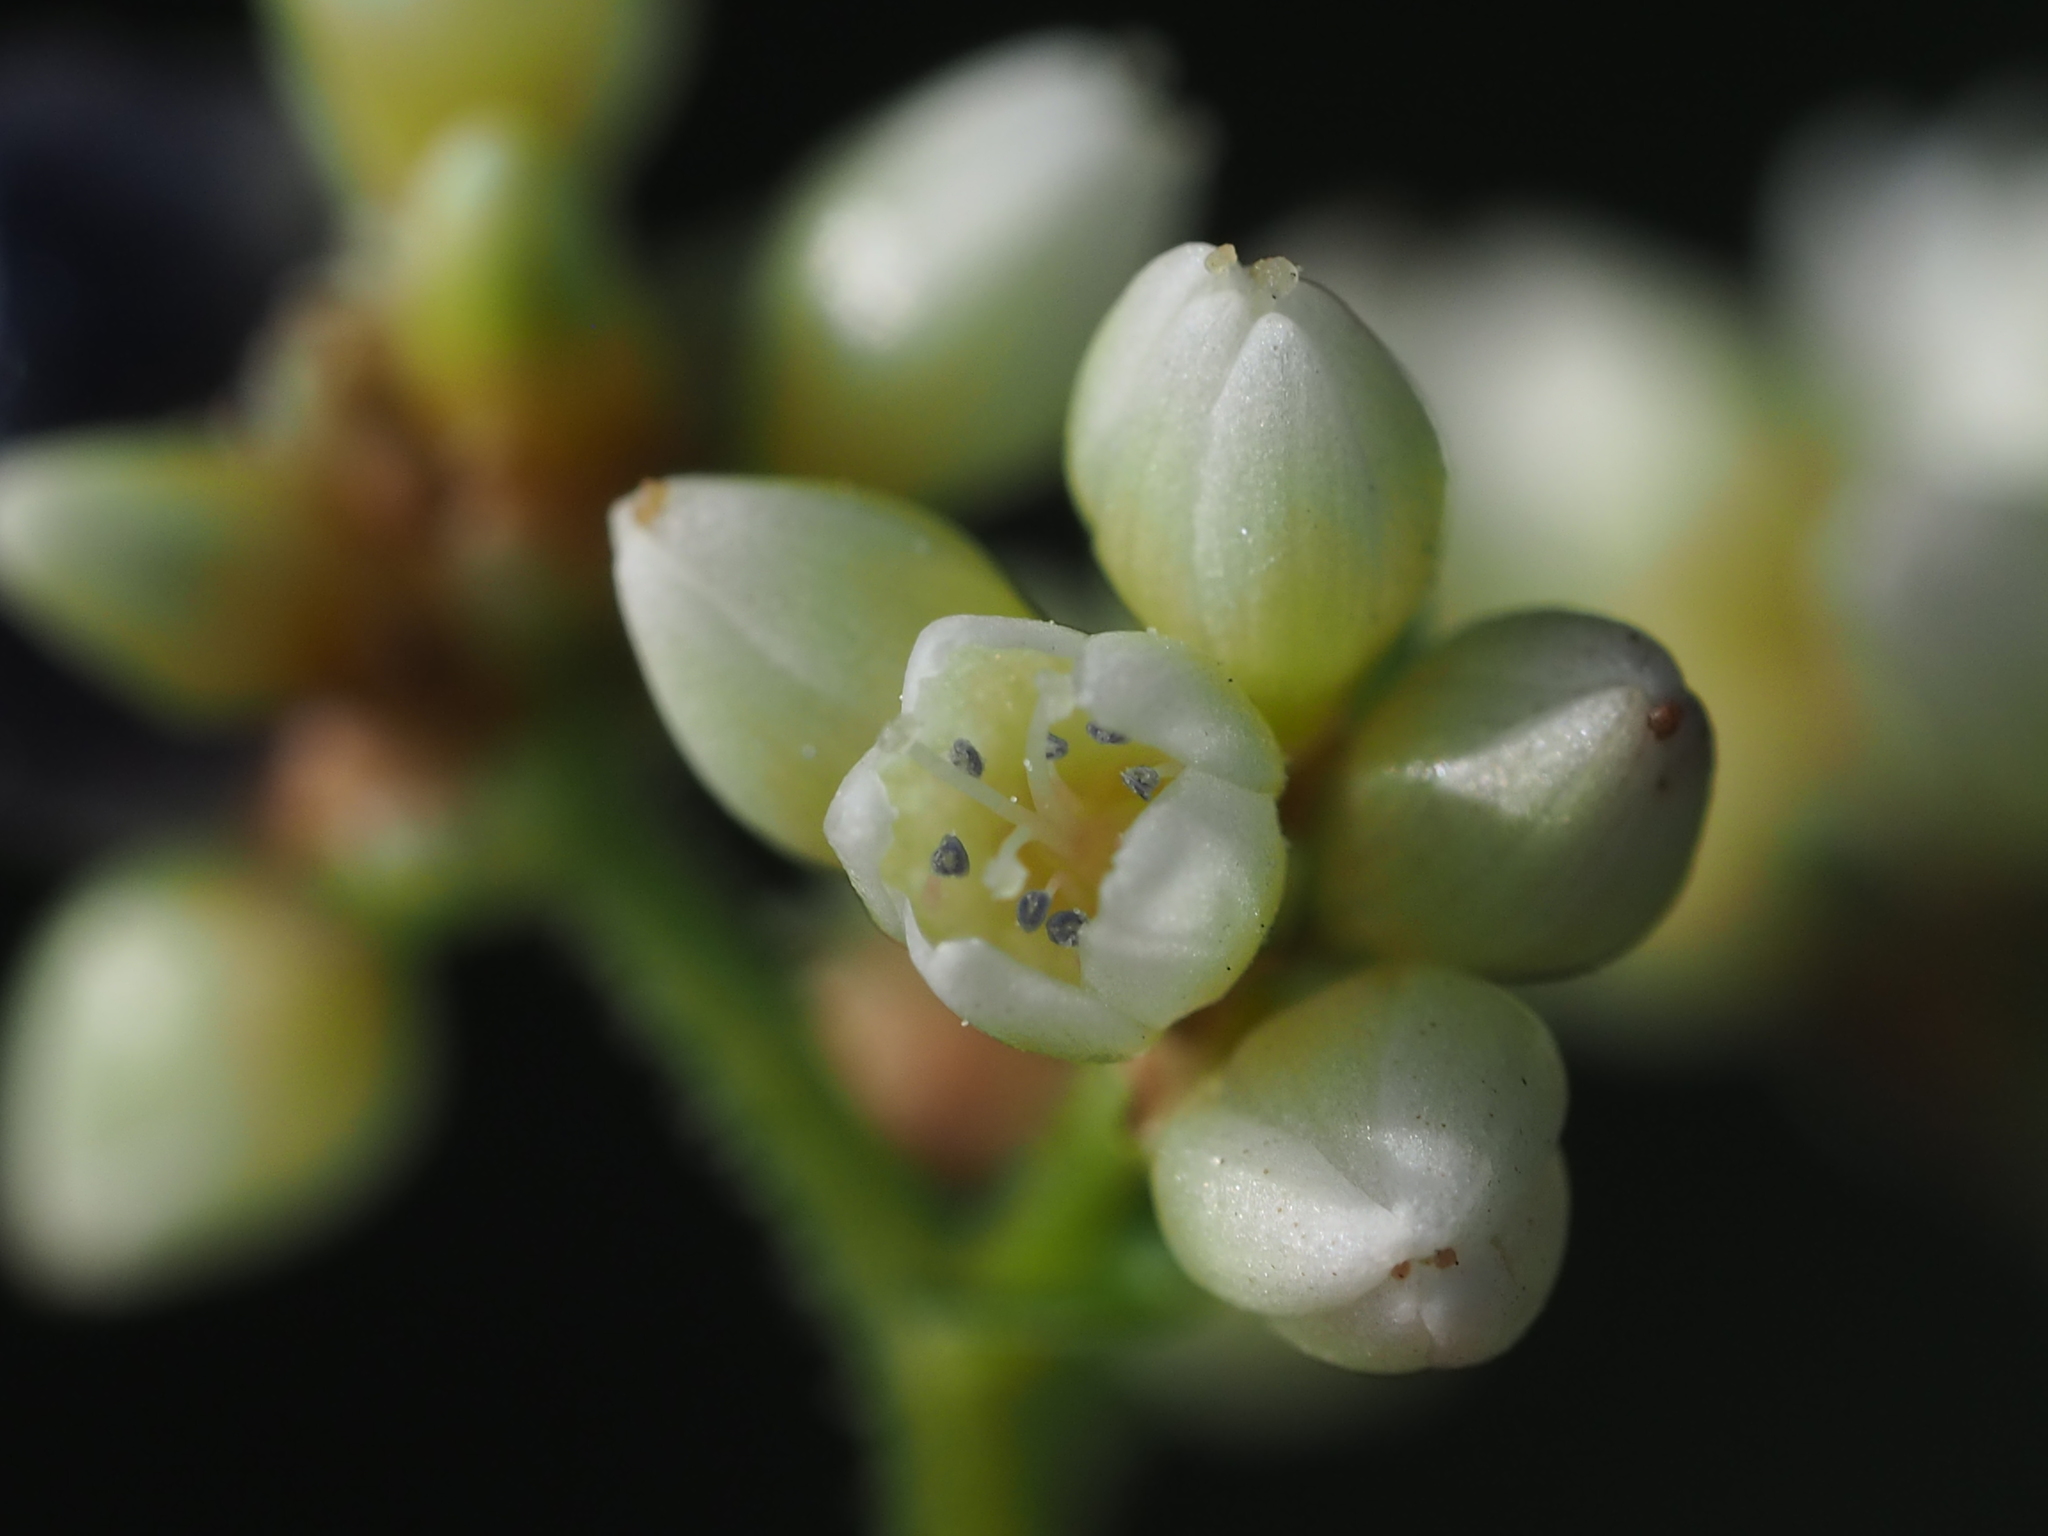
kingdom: Plantae
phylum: Tracheophyta
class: Magnoliopsida
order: Caryophyllales
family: Polygonaceae
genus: Persicaria
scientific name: Persicaria chinensis
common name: Chinese knotweed
